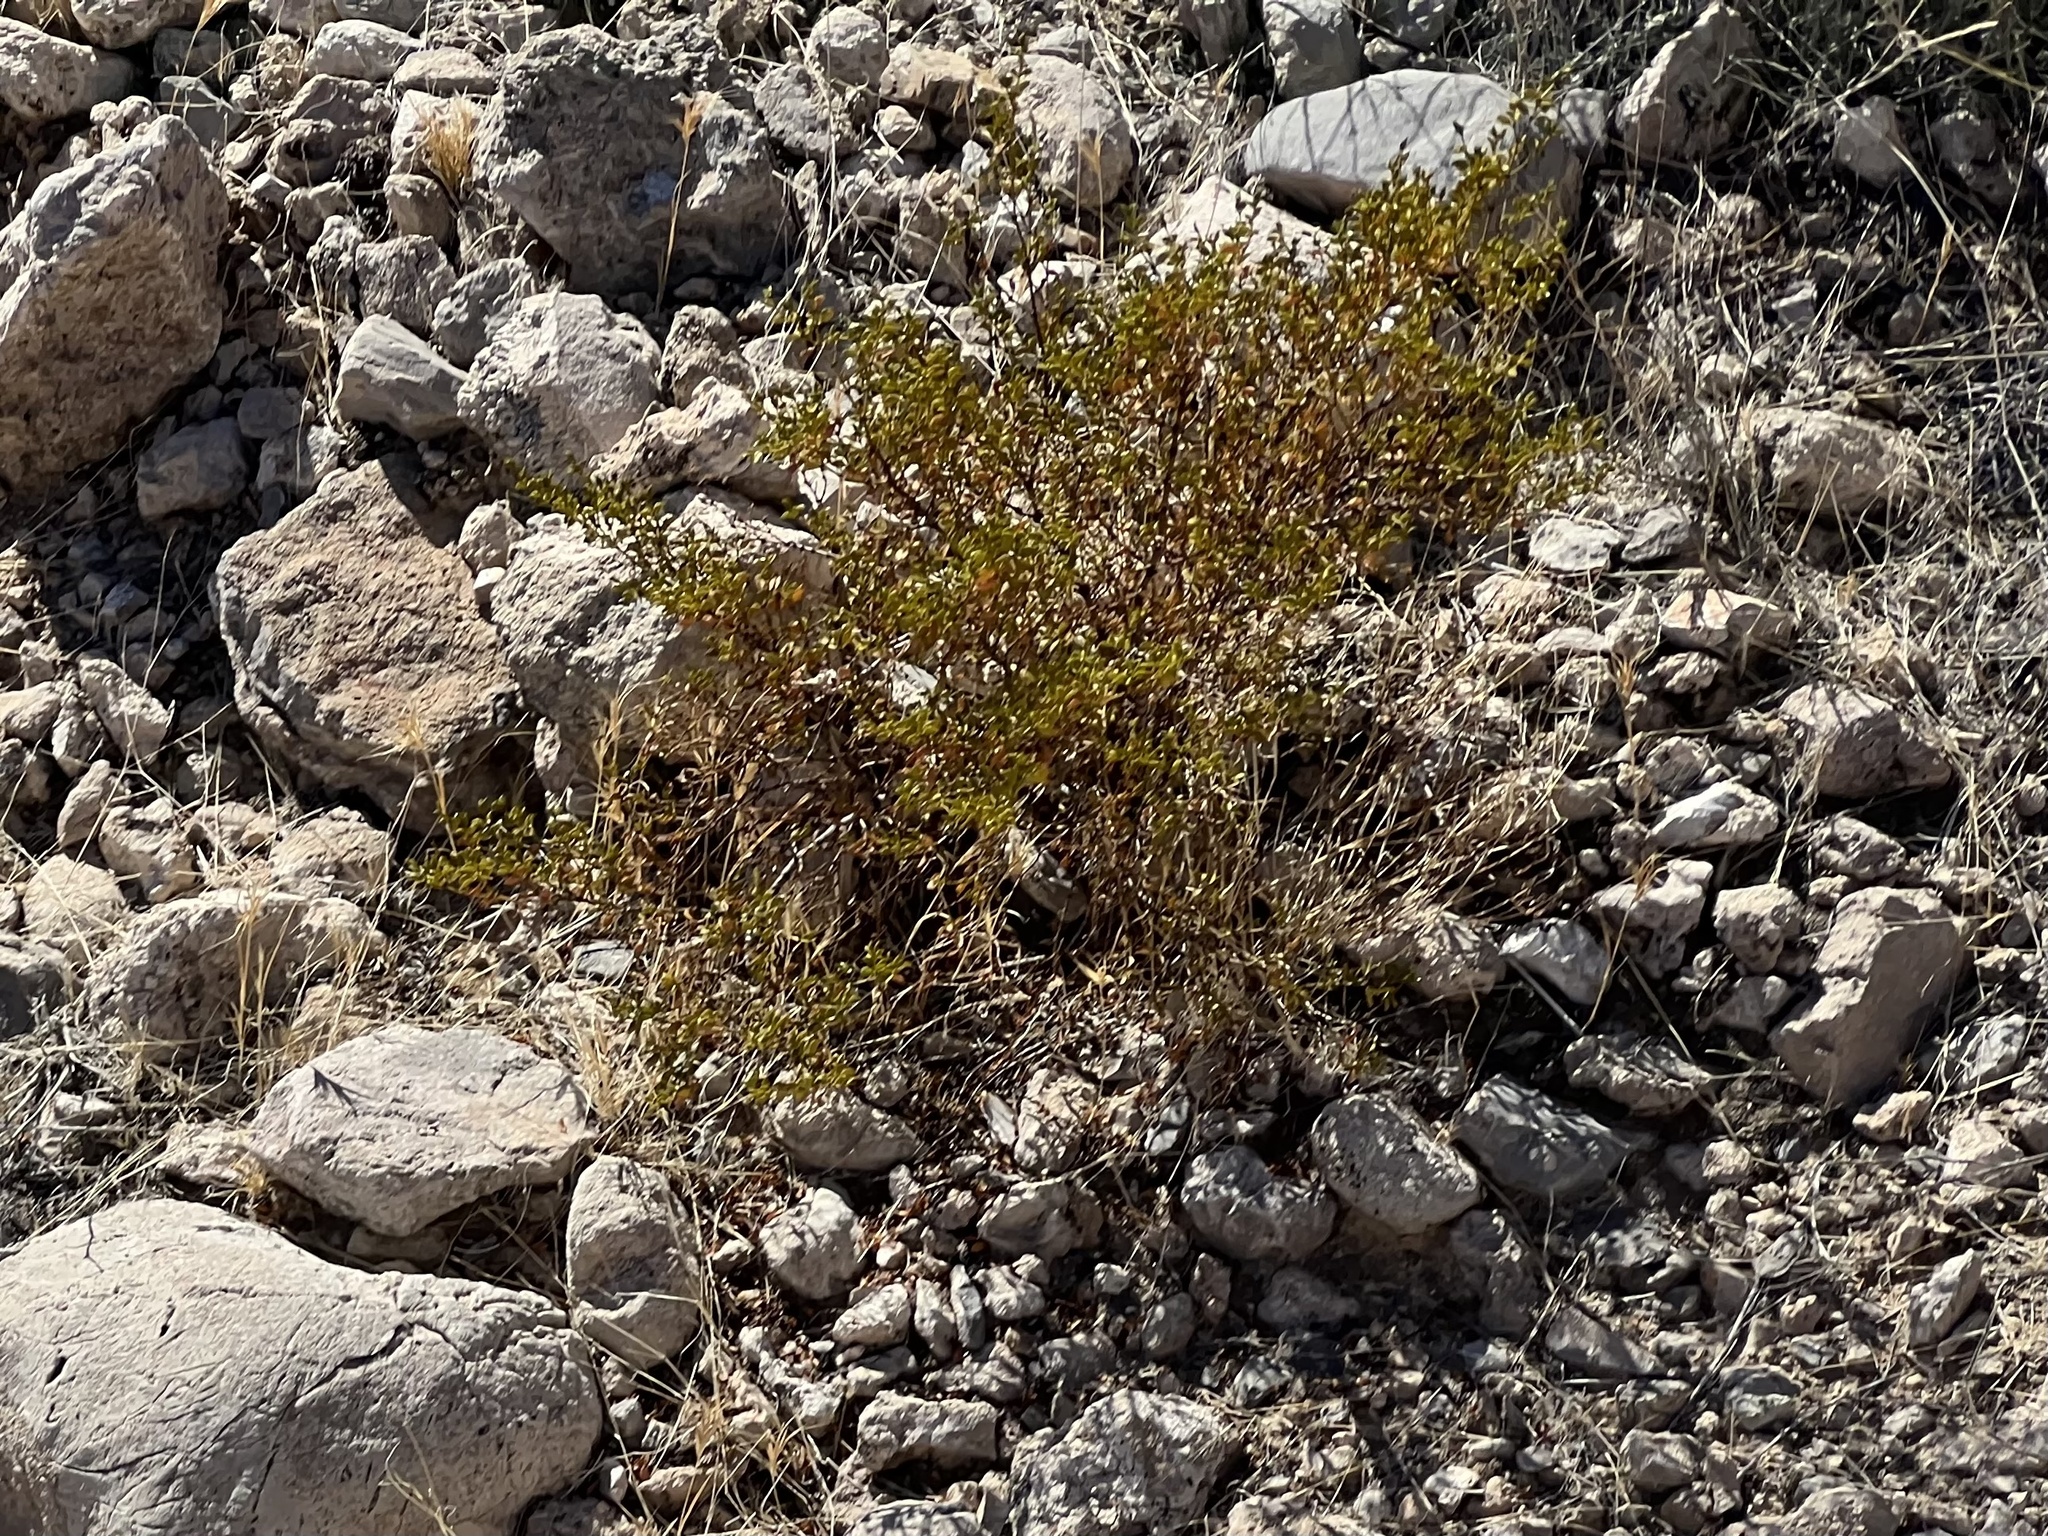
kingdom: Plantae
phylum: Tracheophyta
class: Magnoliopsida
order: Zygophyllales
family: Zygophyllaceae
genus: Larrea
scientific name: Larrea tridentata
